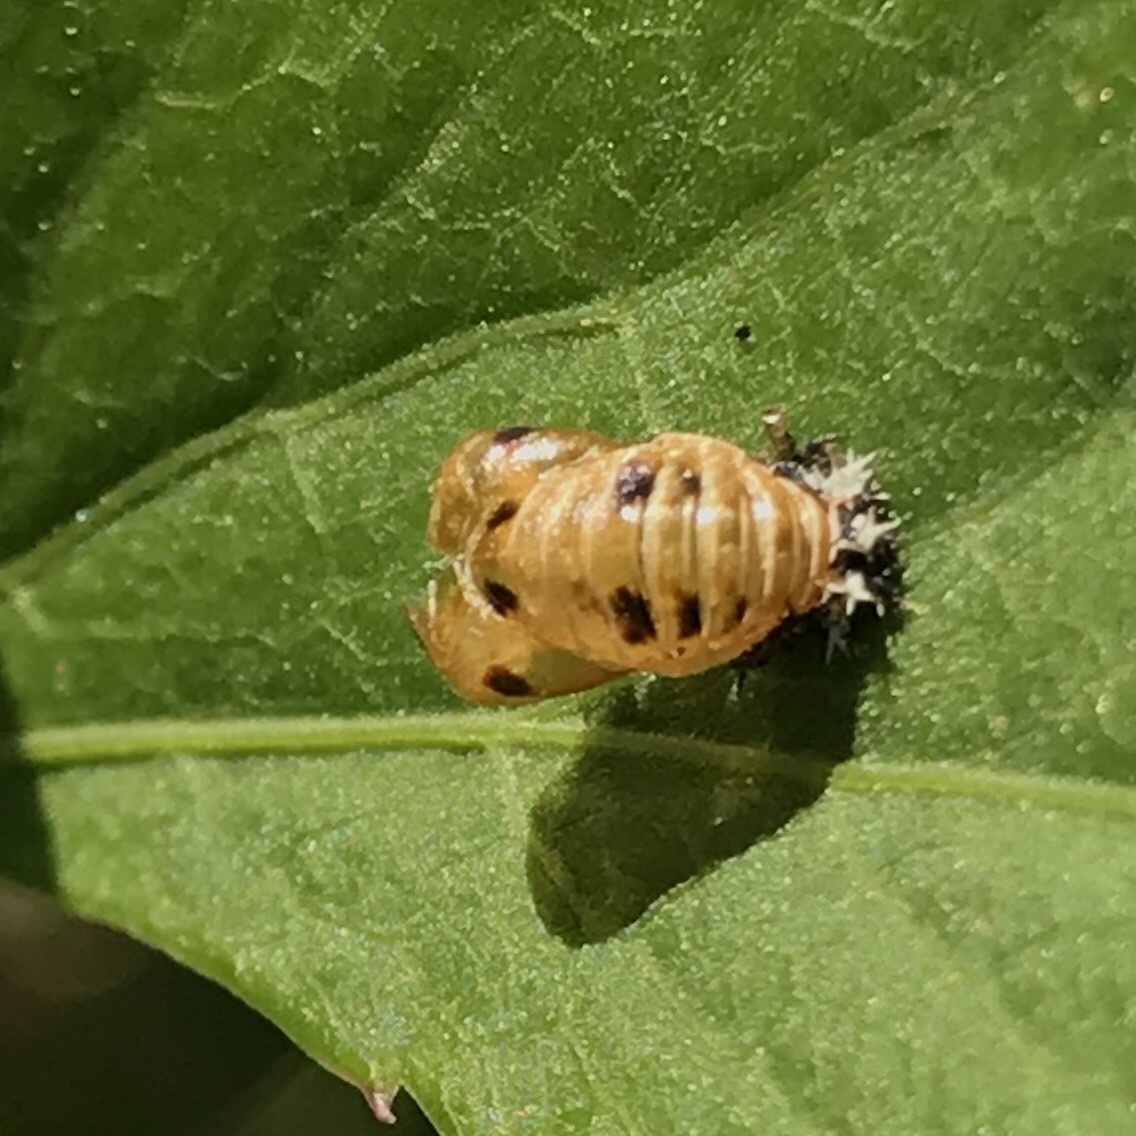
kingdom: Animalia
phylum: Arthropoda
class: Insecta
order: Coleoptera
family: Coccinellidae
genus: Harmonia
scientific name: Harmonia axyridis
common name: Harlequin ladybird
